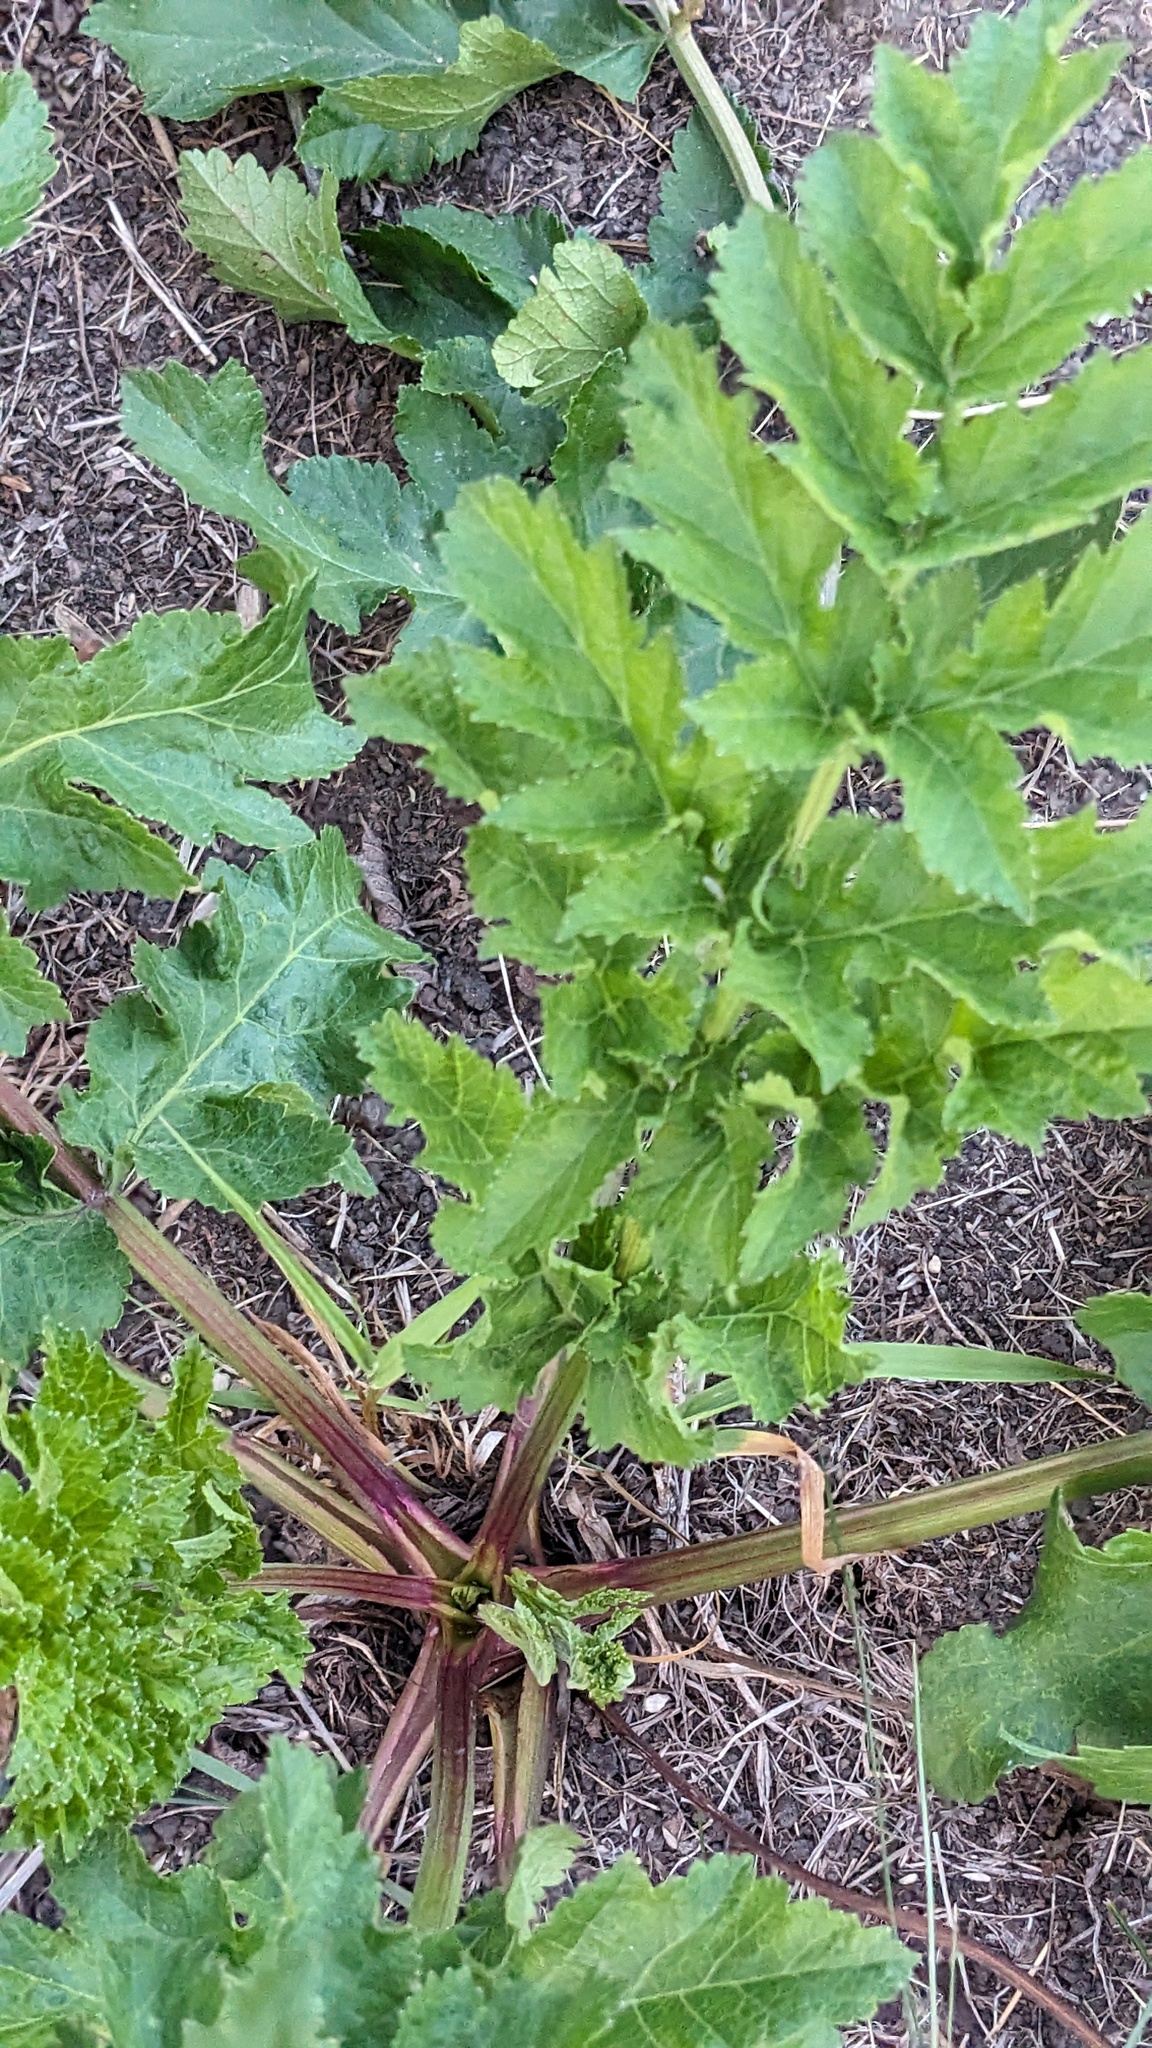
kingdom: Plantae
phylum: Tracheophyta
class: Magnoliopsida
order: Apiales
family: Apiaceae
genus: Pastinaca
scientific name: Pastinaca sativa
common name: Wild parsnip
